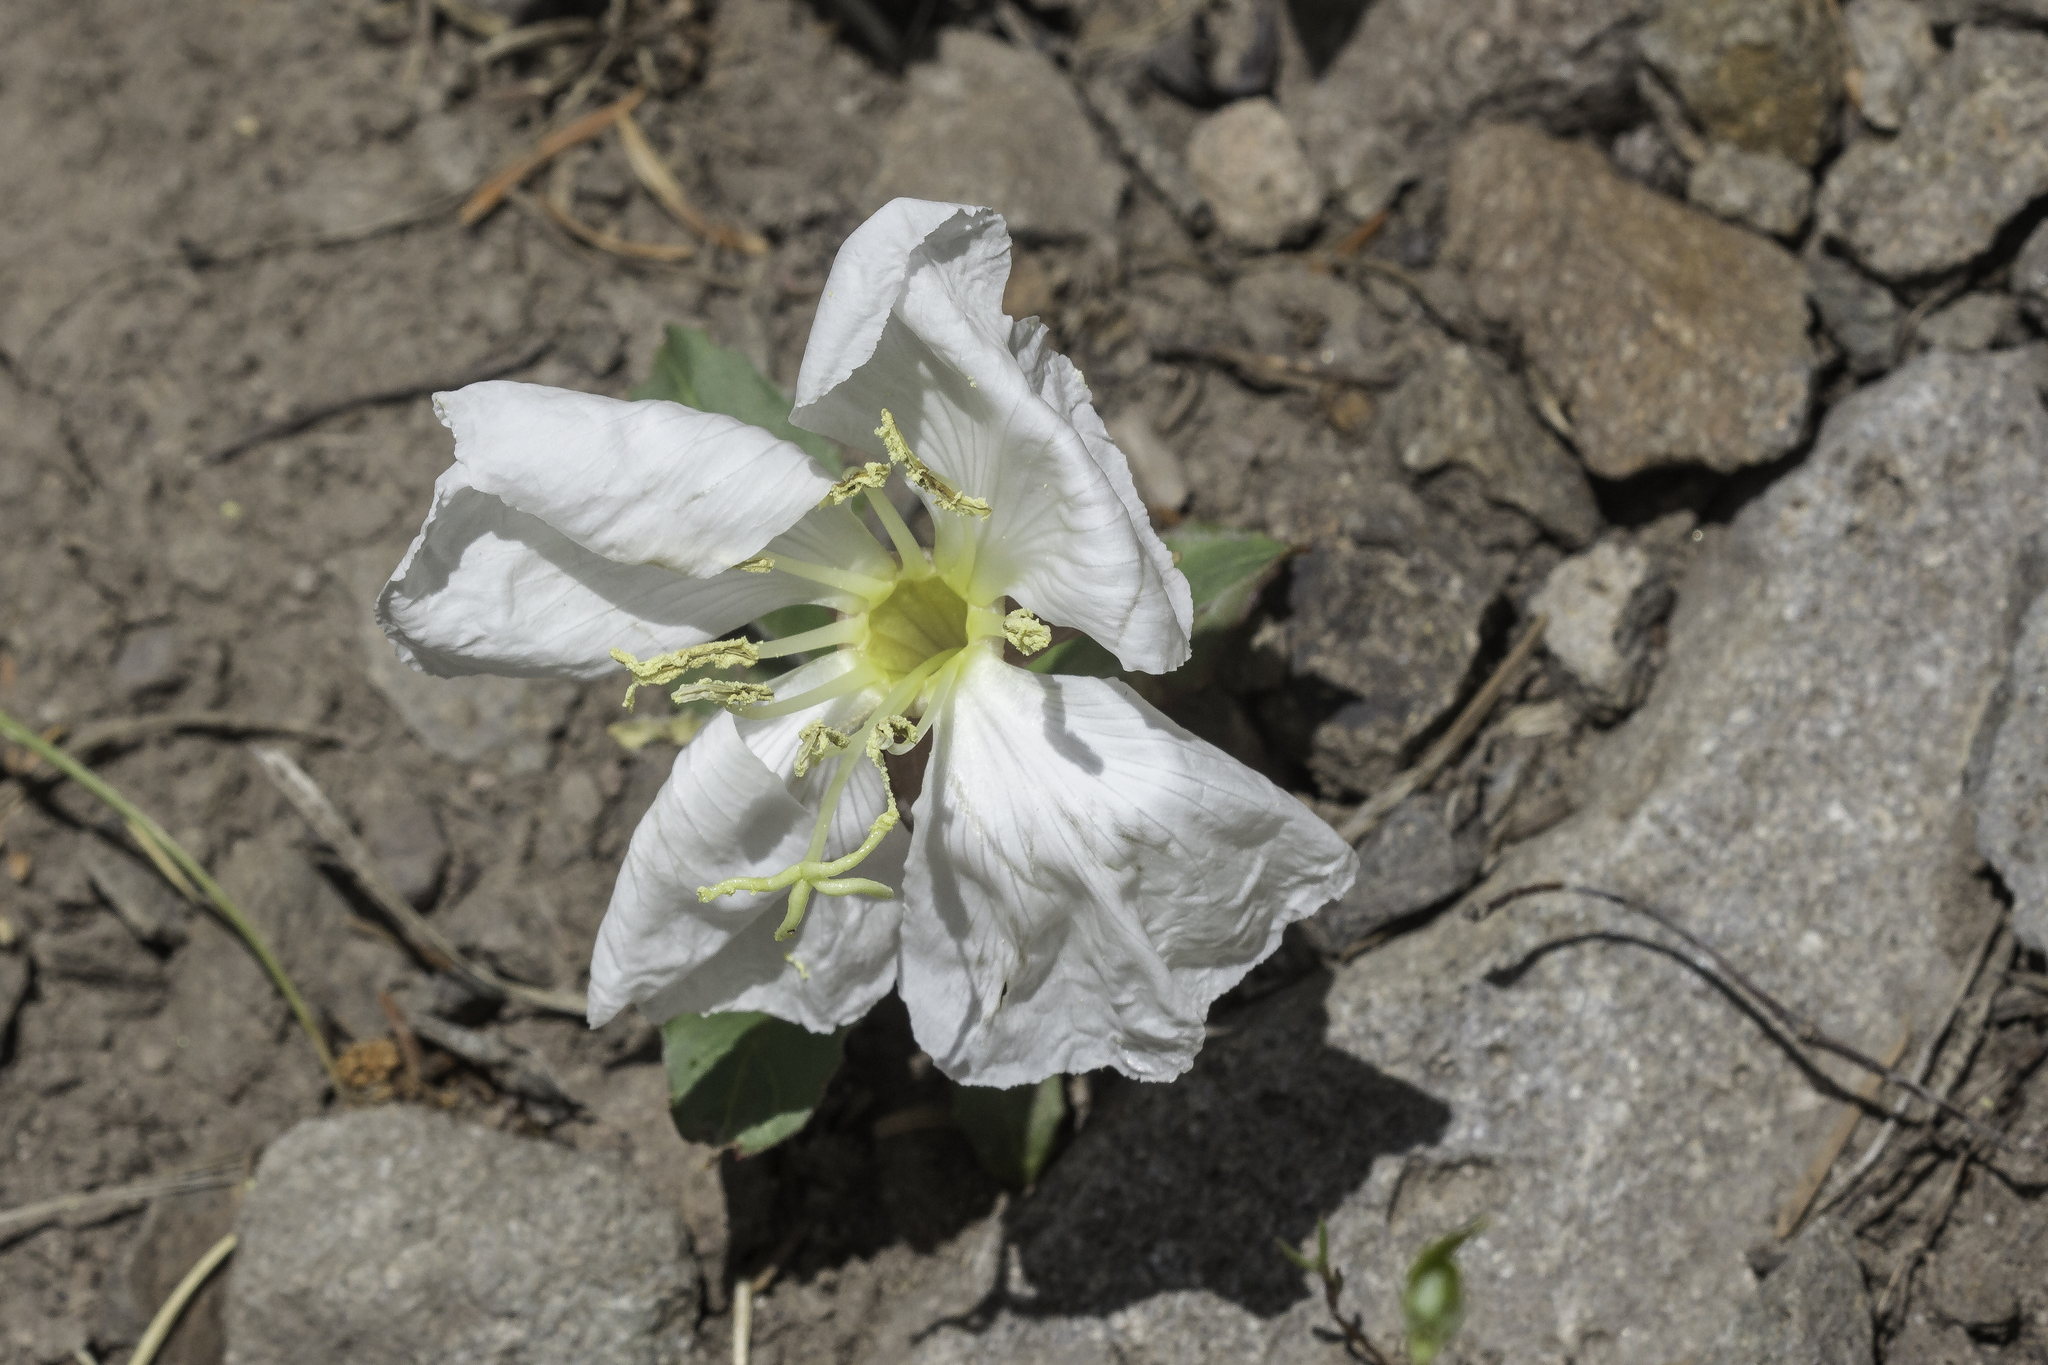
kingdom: Plantae
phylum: Tracheophyta
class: Magnoliopsida
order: Myrtales
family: Onagraceae
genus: Oenothera
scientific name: Oenothera cespitosa
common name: Tufted evening-primrose
